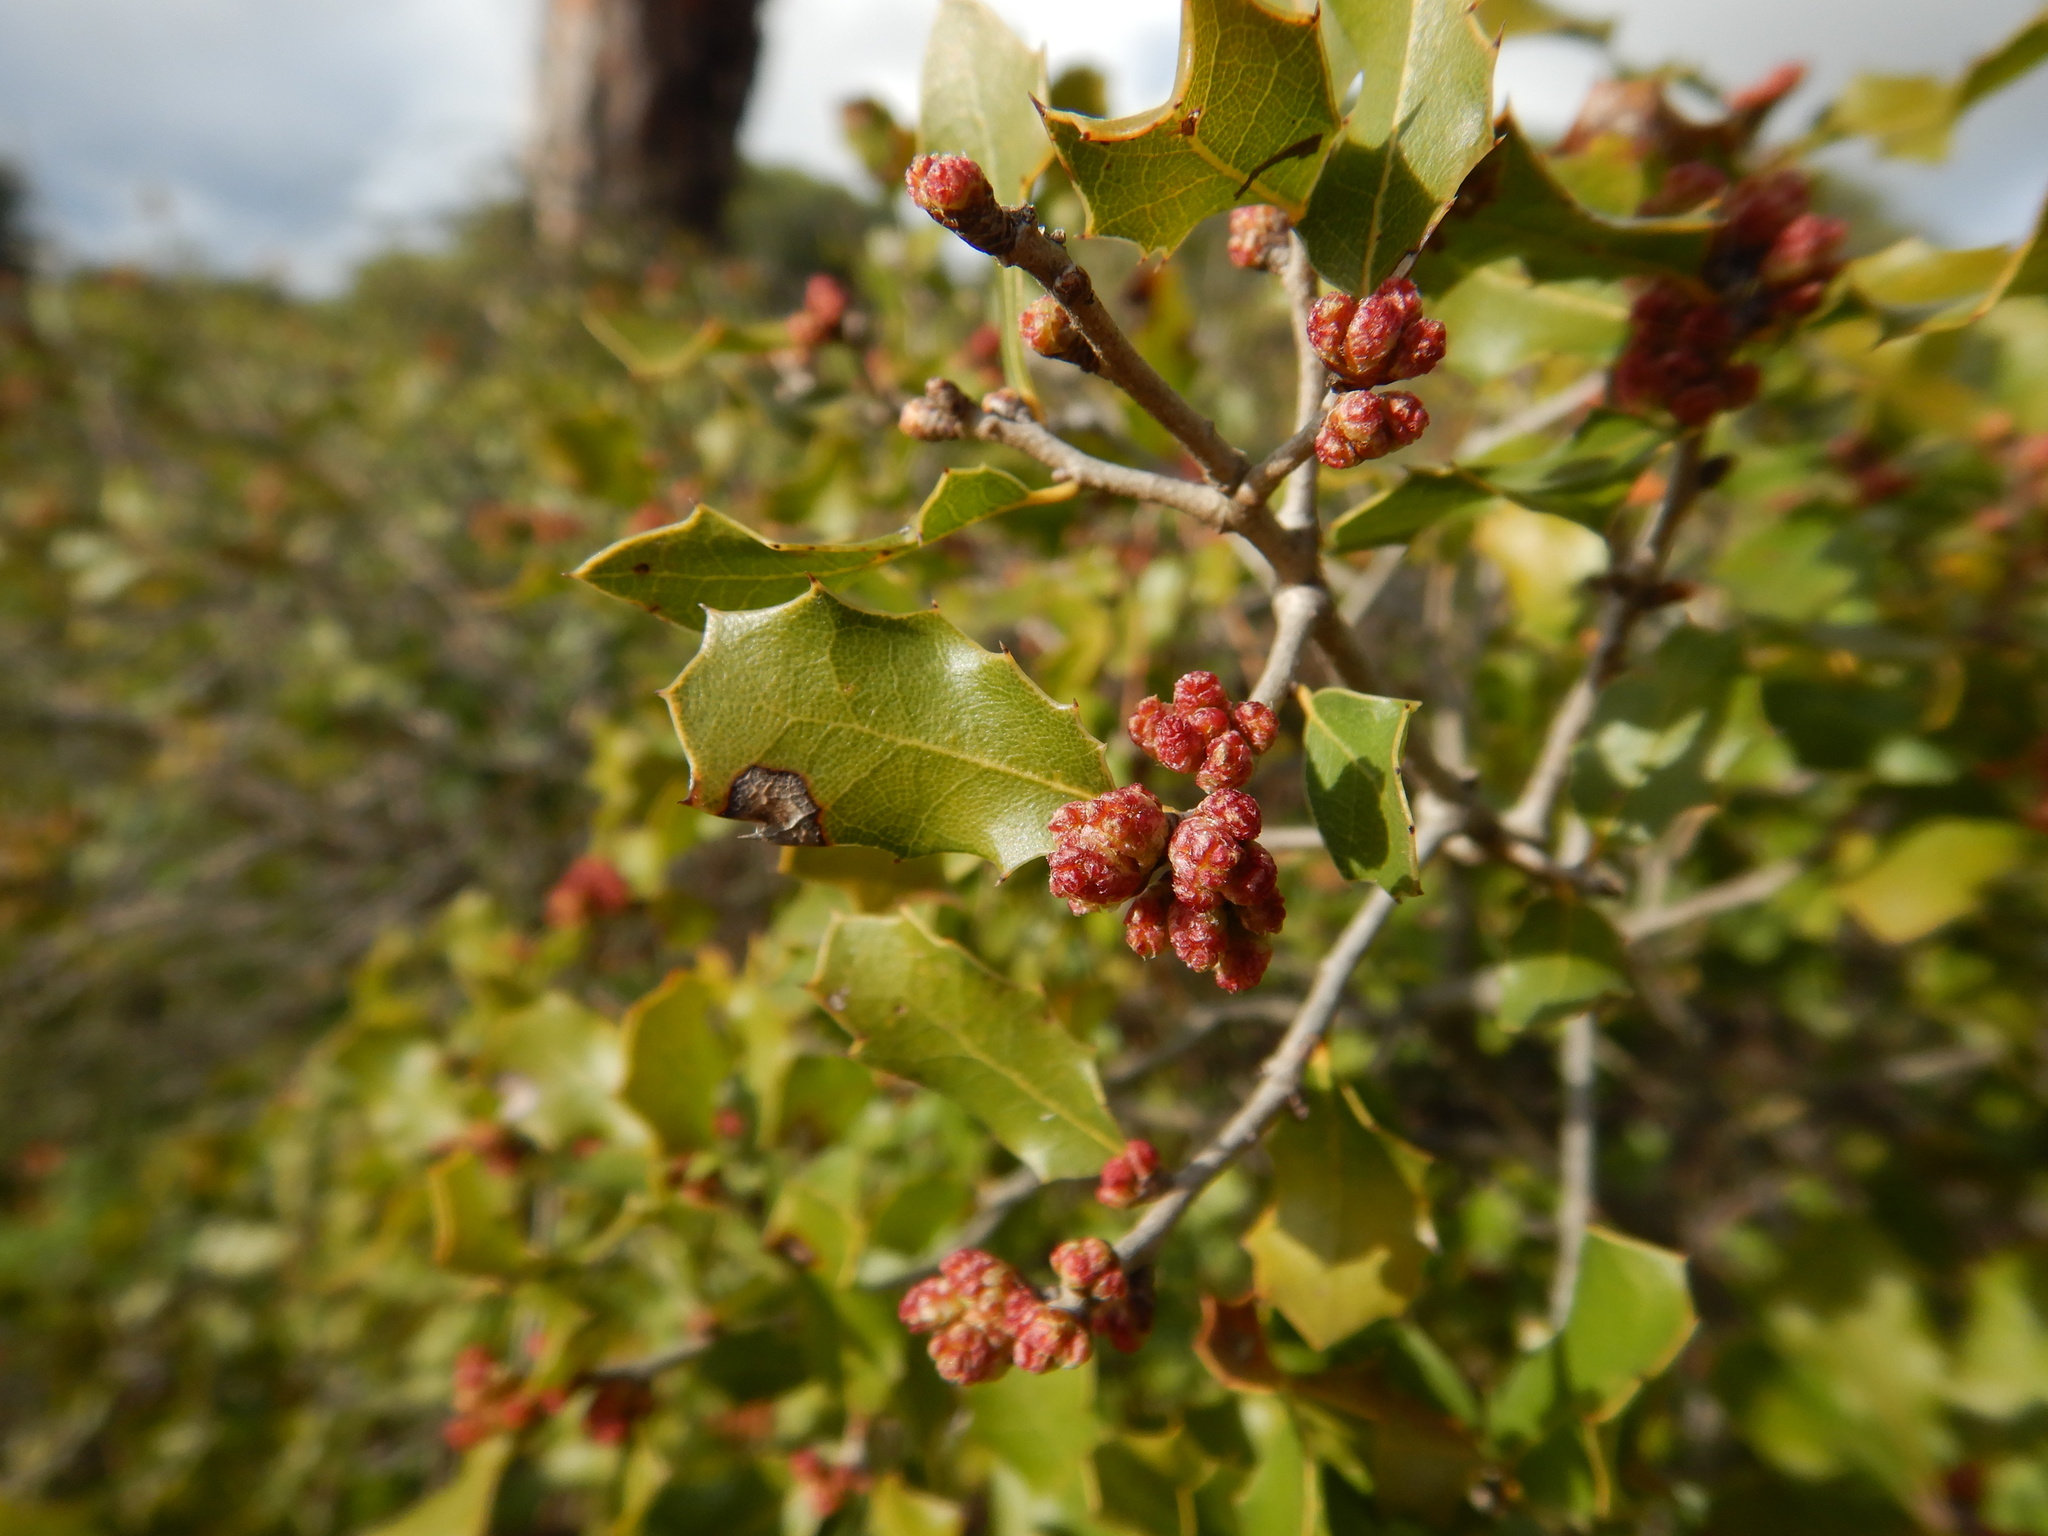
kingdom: Plantae
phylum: Tracheophyta
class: Magnoliopsida
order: Fagales
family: Fagaceae
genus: Quercus
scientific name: Quercus coccifera
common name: Kermes oak
